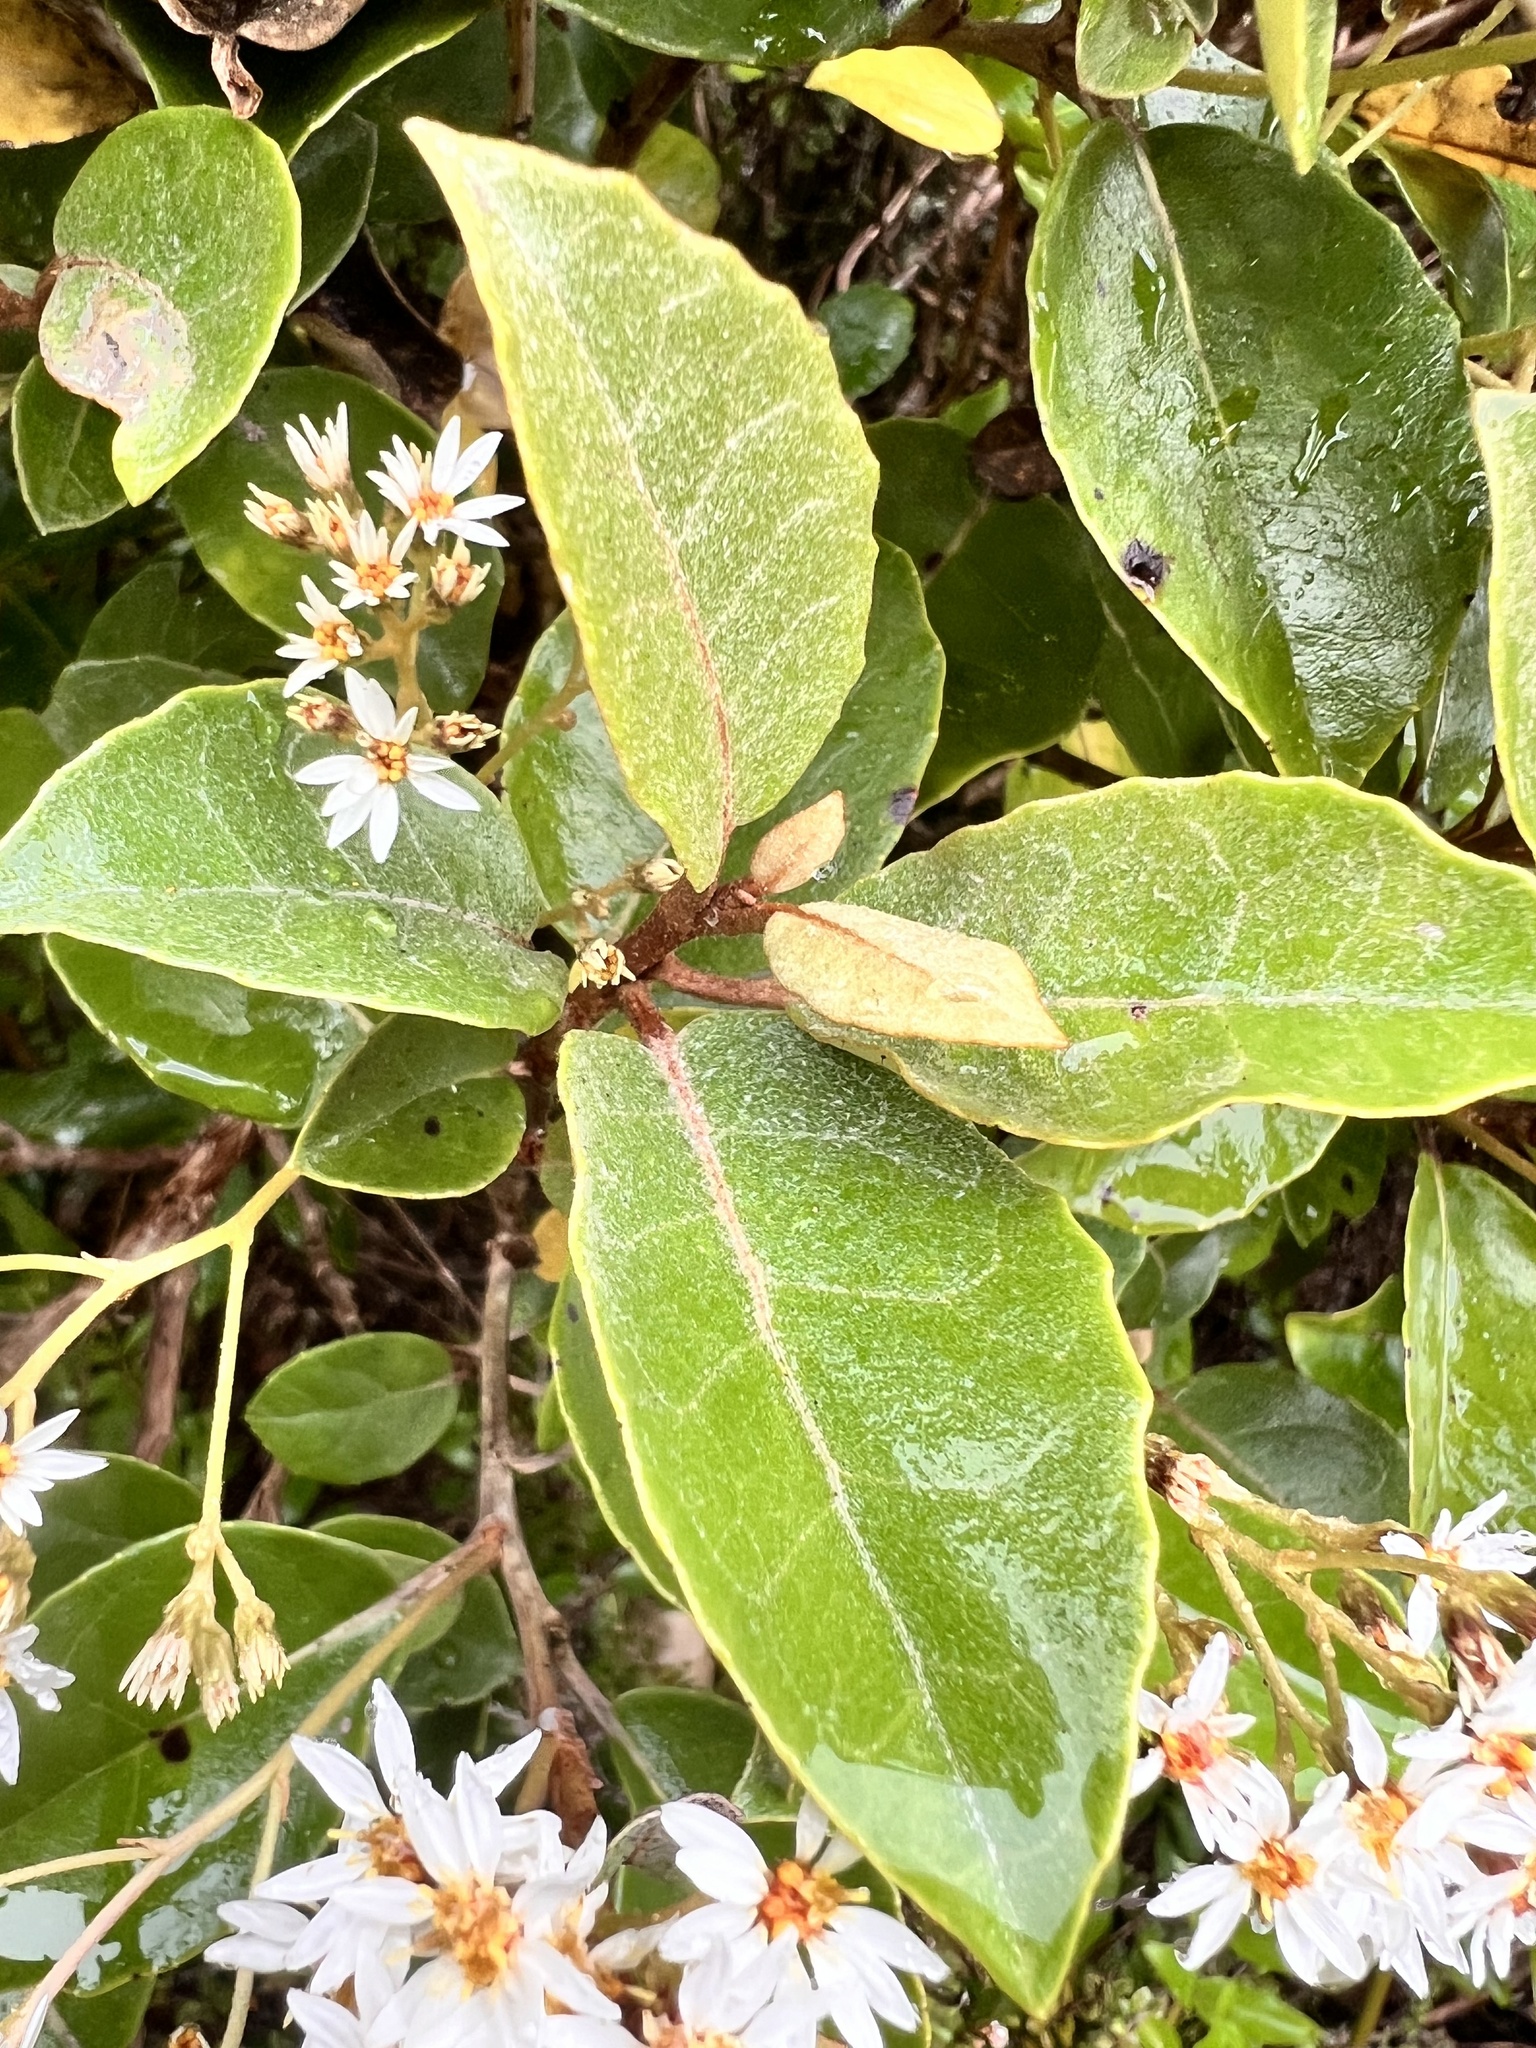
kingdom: Plantae
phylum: Tracheophyta
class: Magnoliopsida
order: Asterales
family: Asteraceae
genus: Olearia
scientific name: Olearia arborescens
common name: Glossy tree daisy
